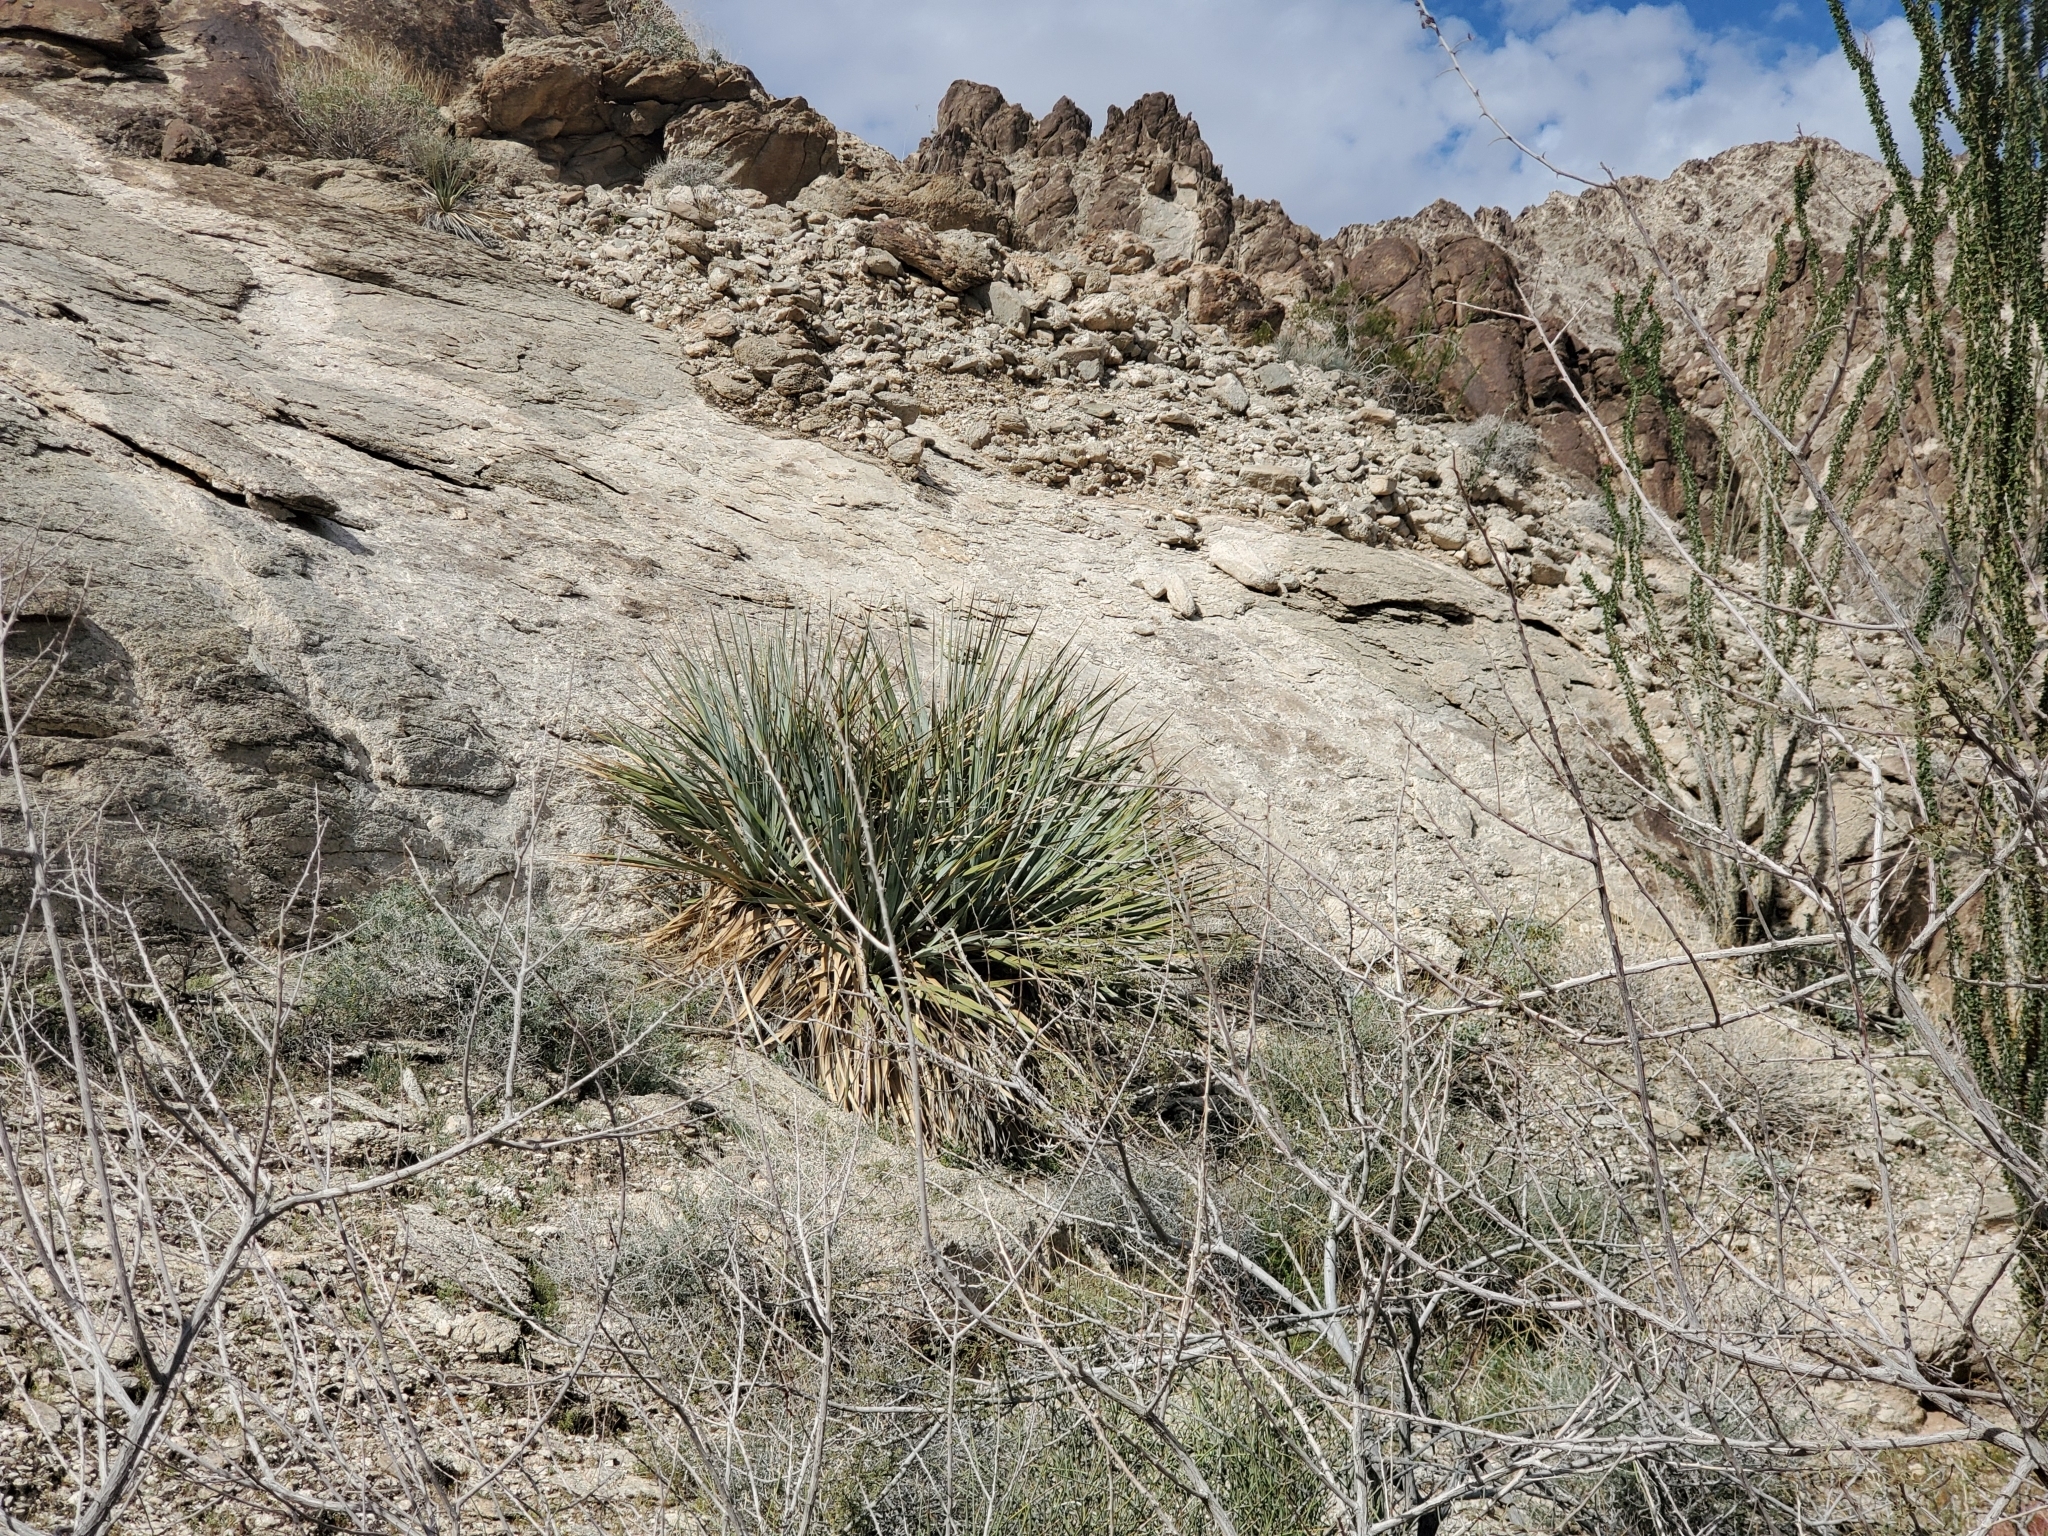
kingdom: Plantae
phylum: Tracheophyta
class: Liliopsida
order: Asparagales
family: Asparagaceae
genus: Nolina
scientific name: Nolina bigelovii
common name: Bigelow bear-grass
